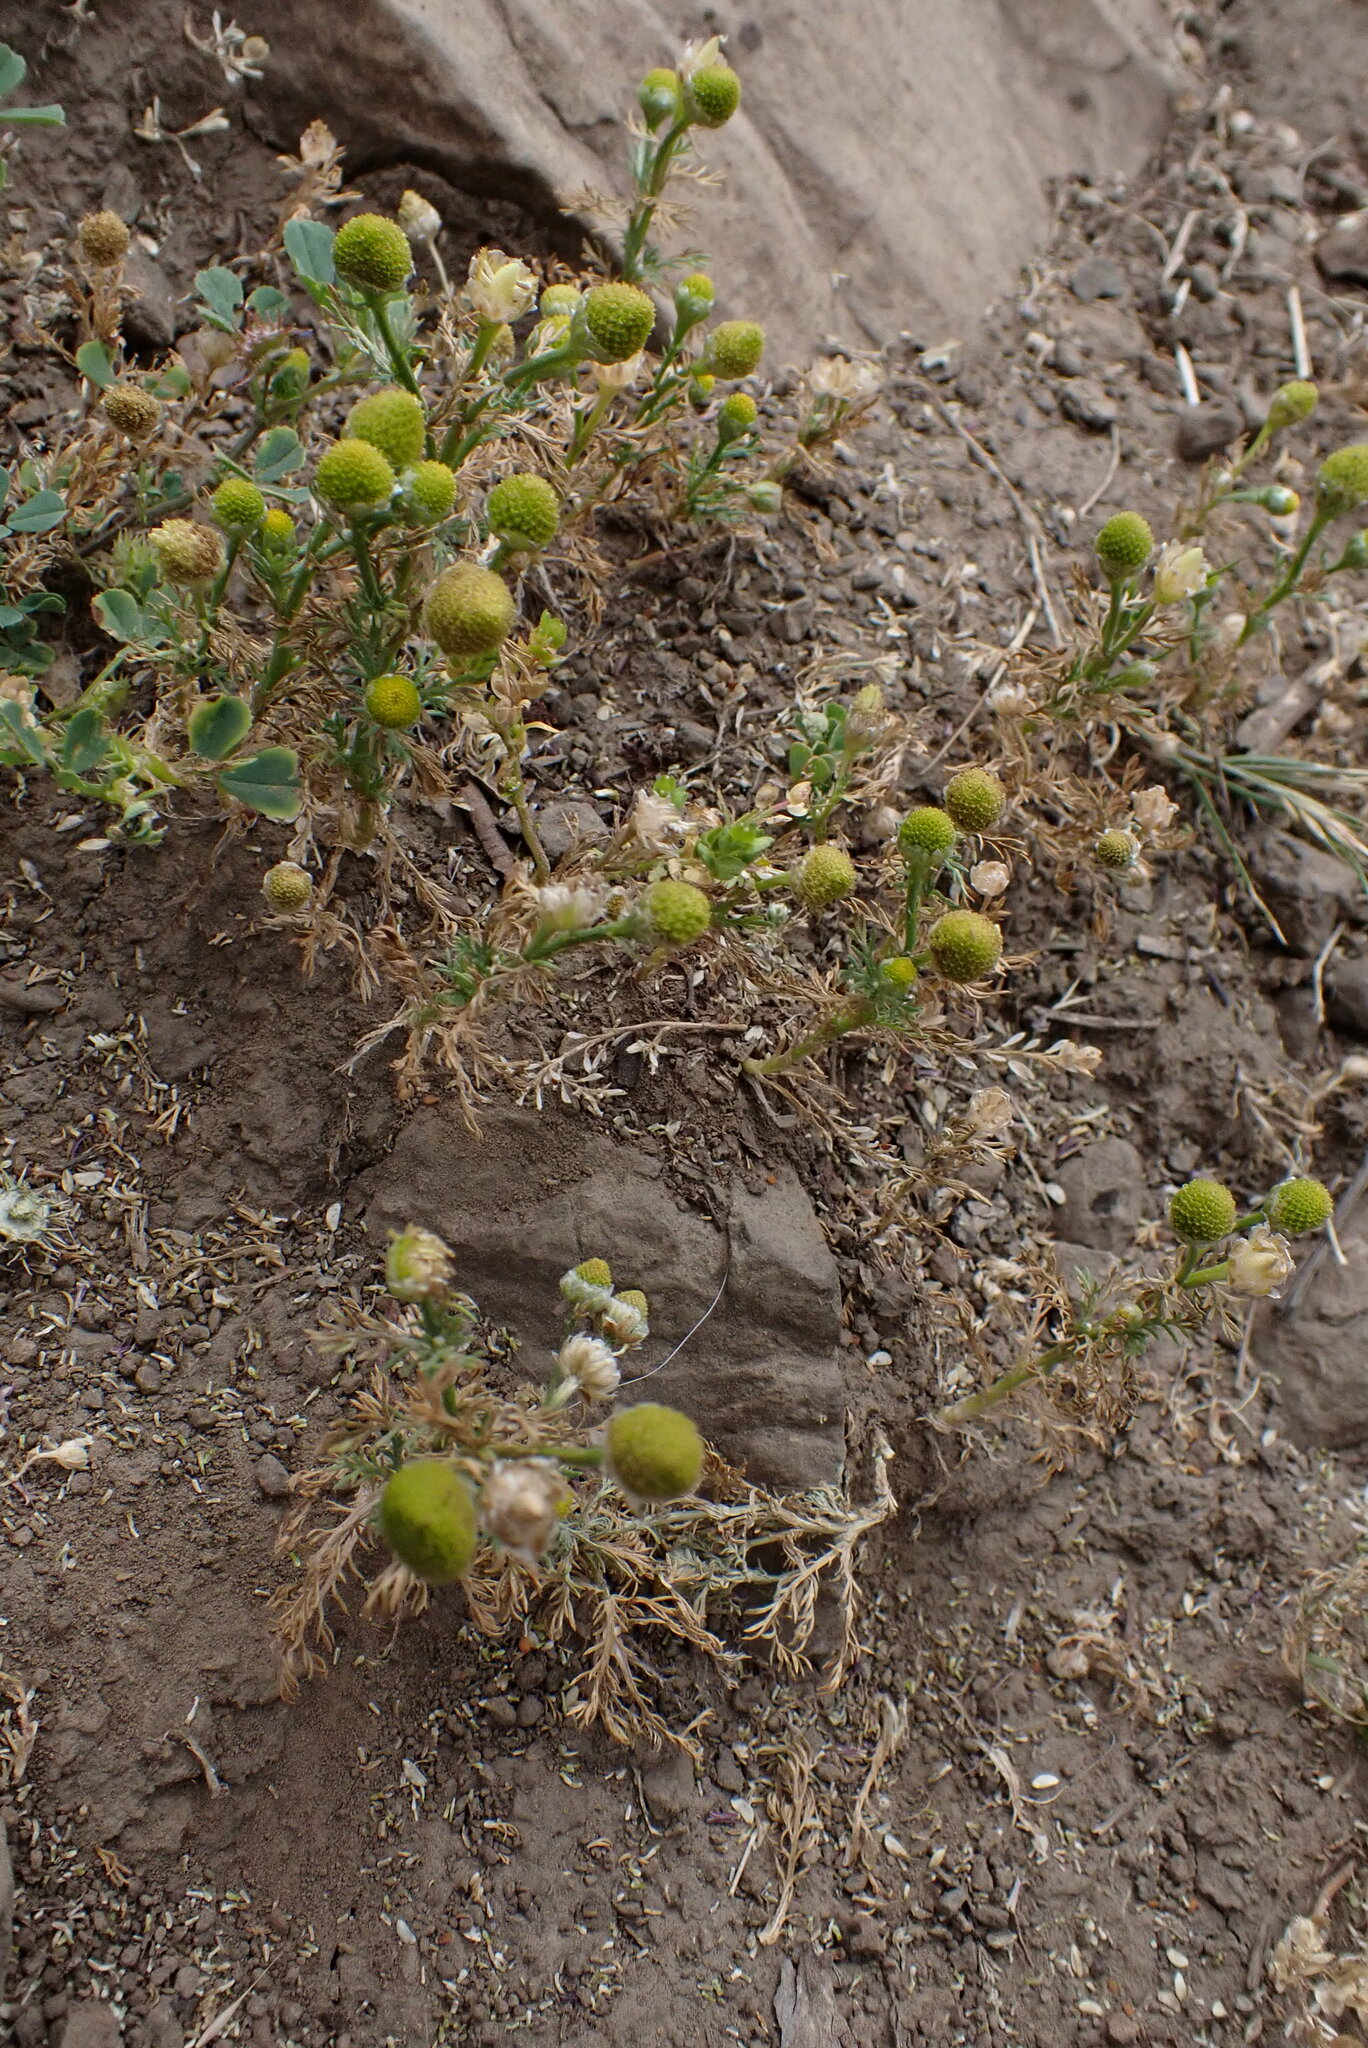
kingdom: Plantae
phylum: Tracheophyta
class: Magnoliopsida
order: Asterales
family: Asteraceae
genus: Matricaria
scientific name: Matricaria discoidea
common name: Disc mayweed
